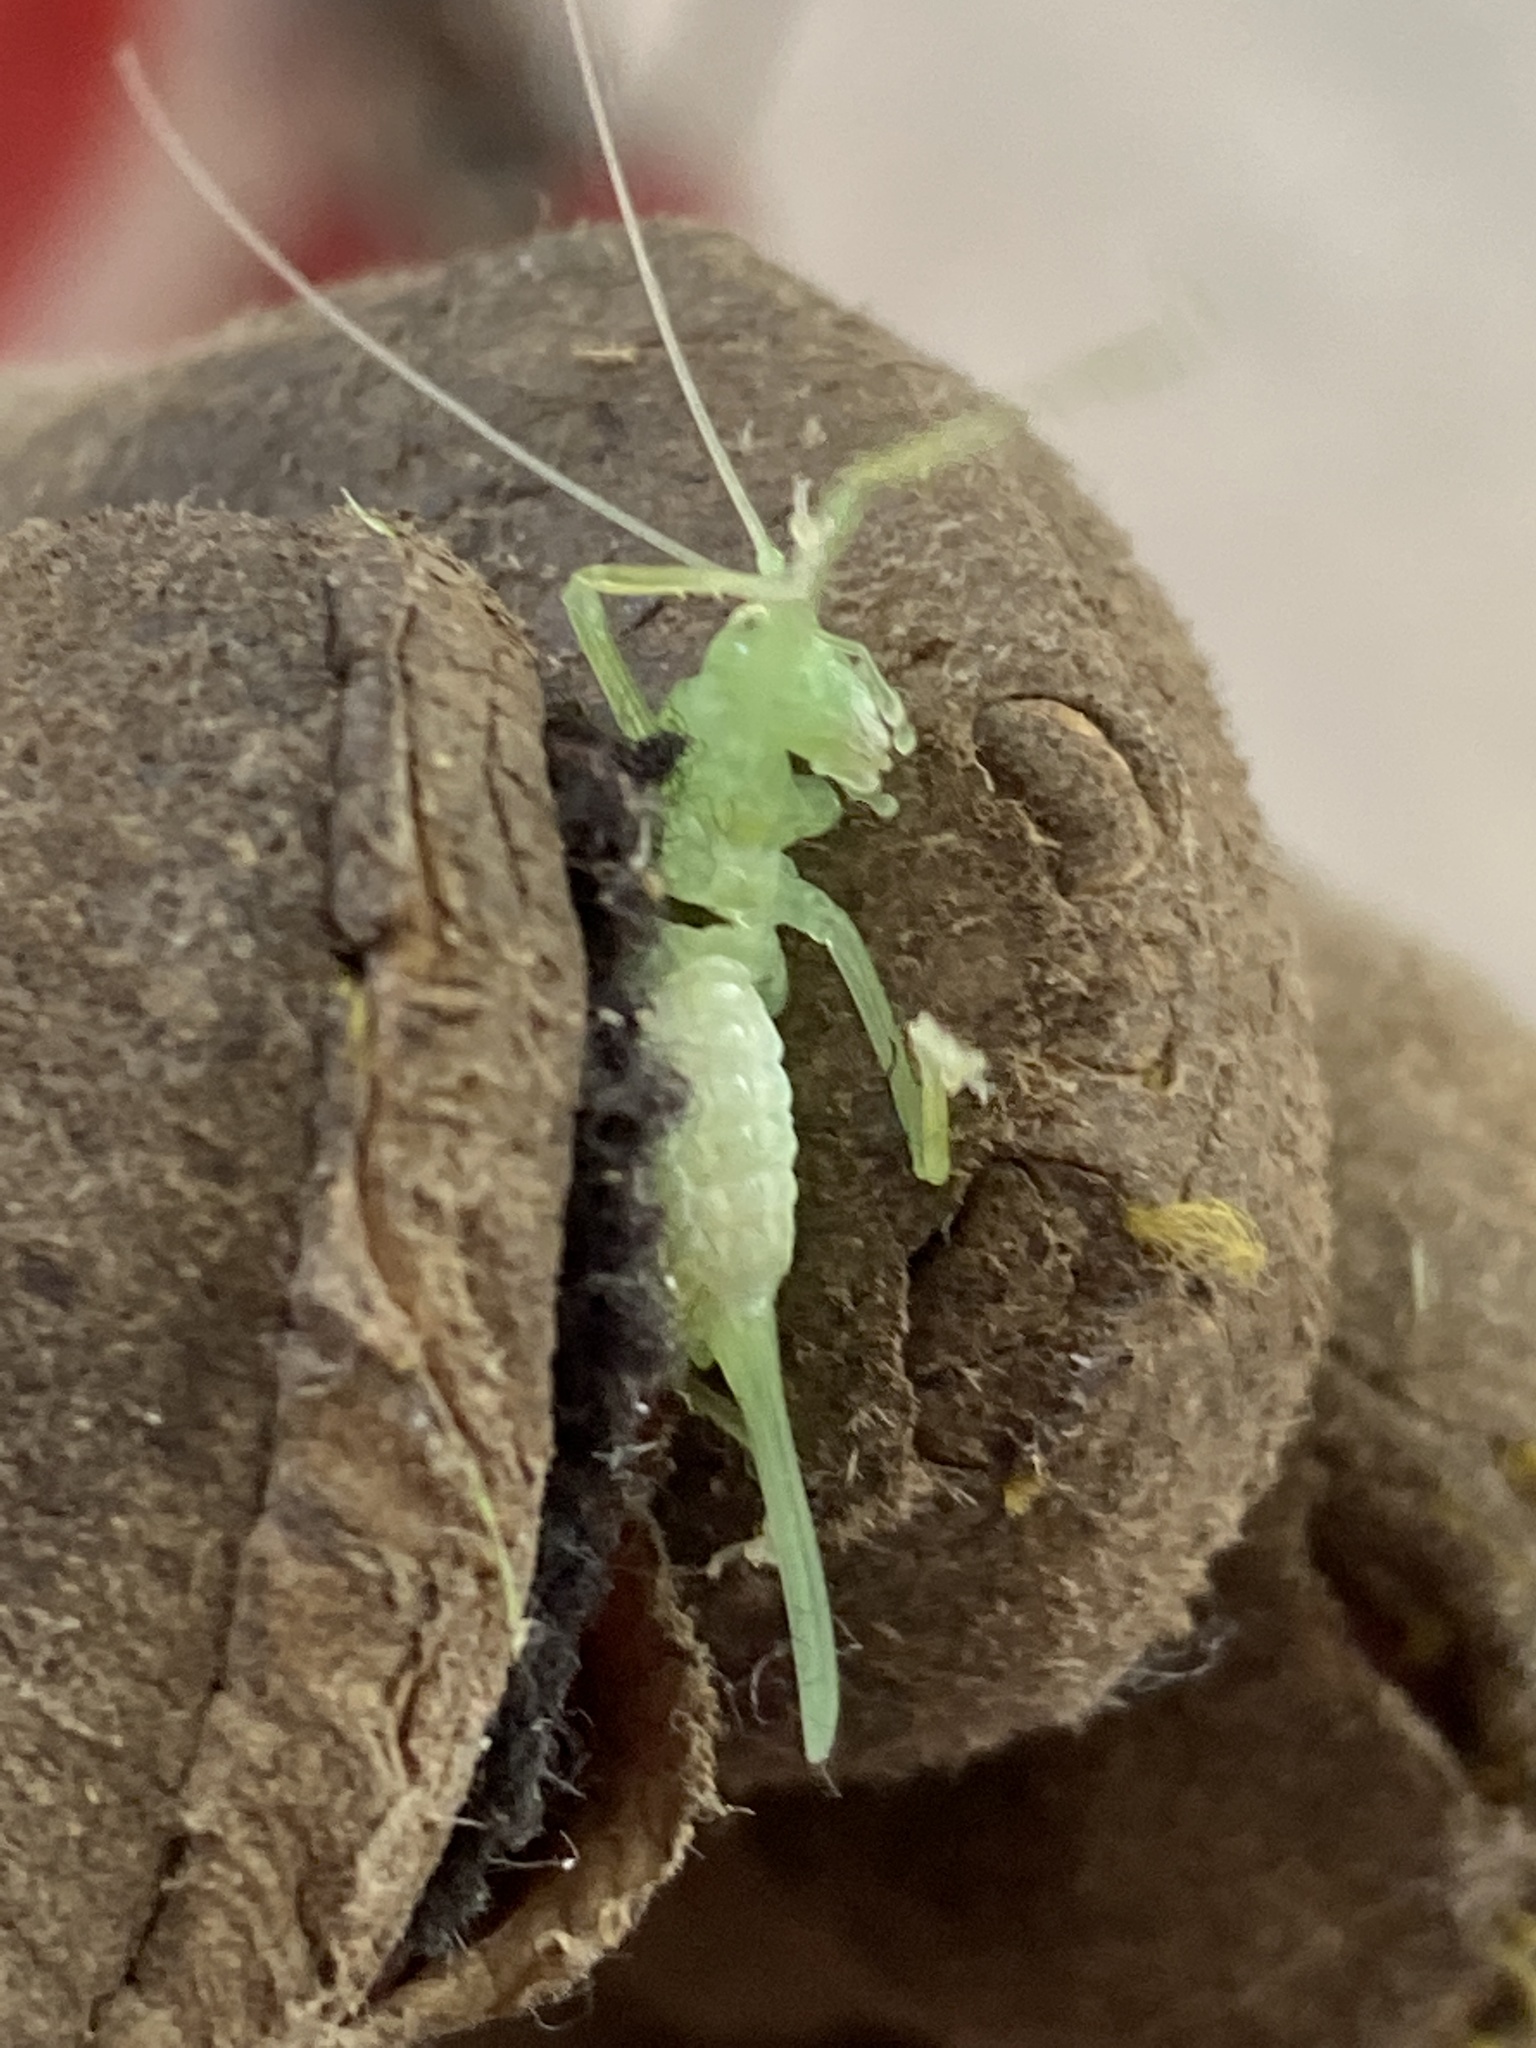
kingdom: Animalia
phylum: Arthropoda
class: Insecta
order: Orthoptera
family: Tettigoniidae
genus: Meconema
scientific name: Meconema thalassinum
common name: Oak bush-cricket
